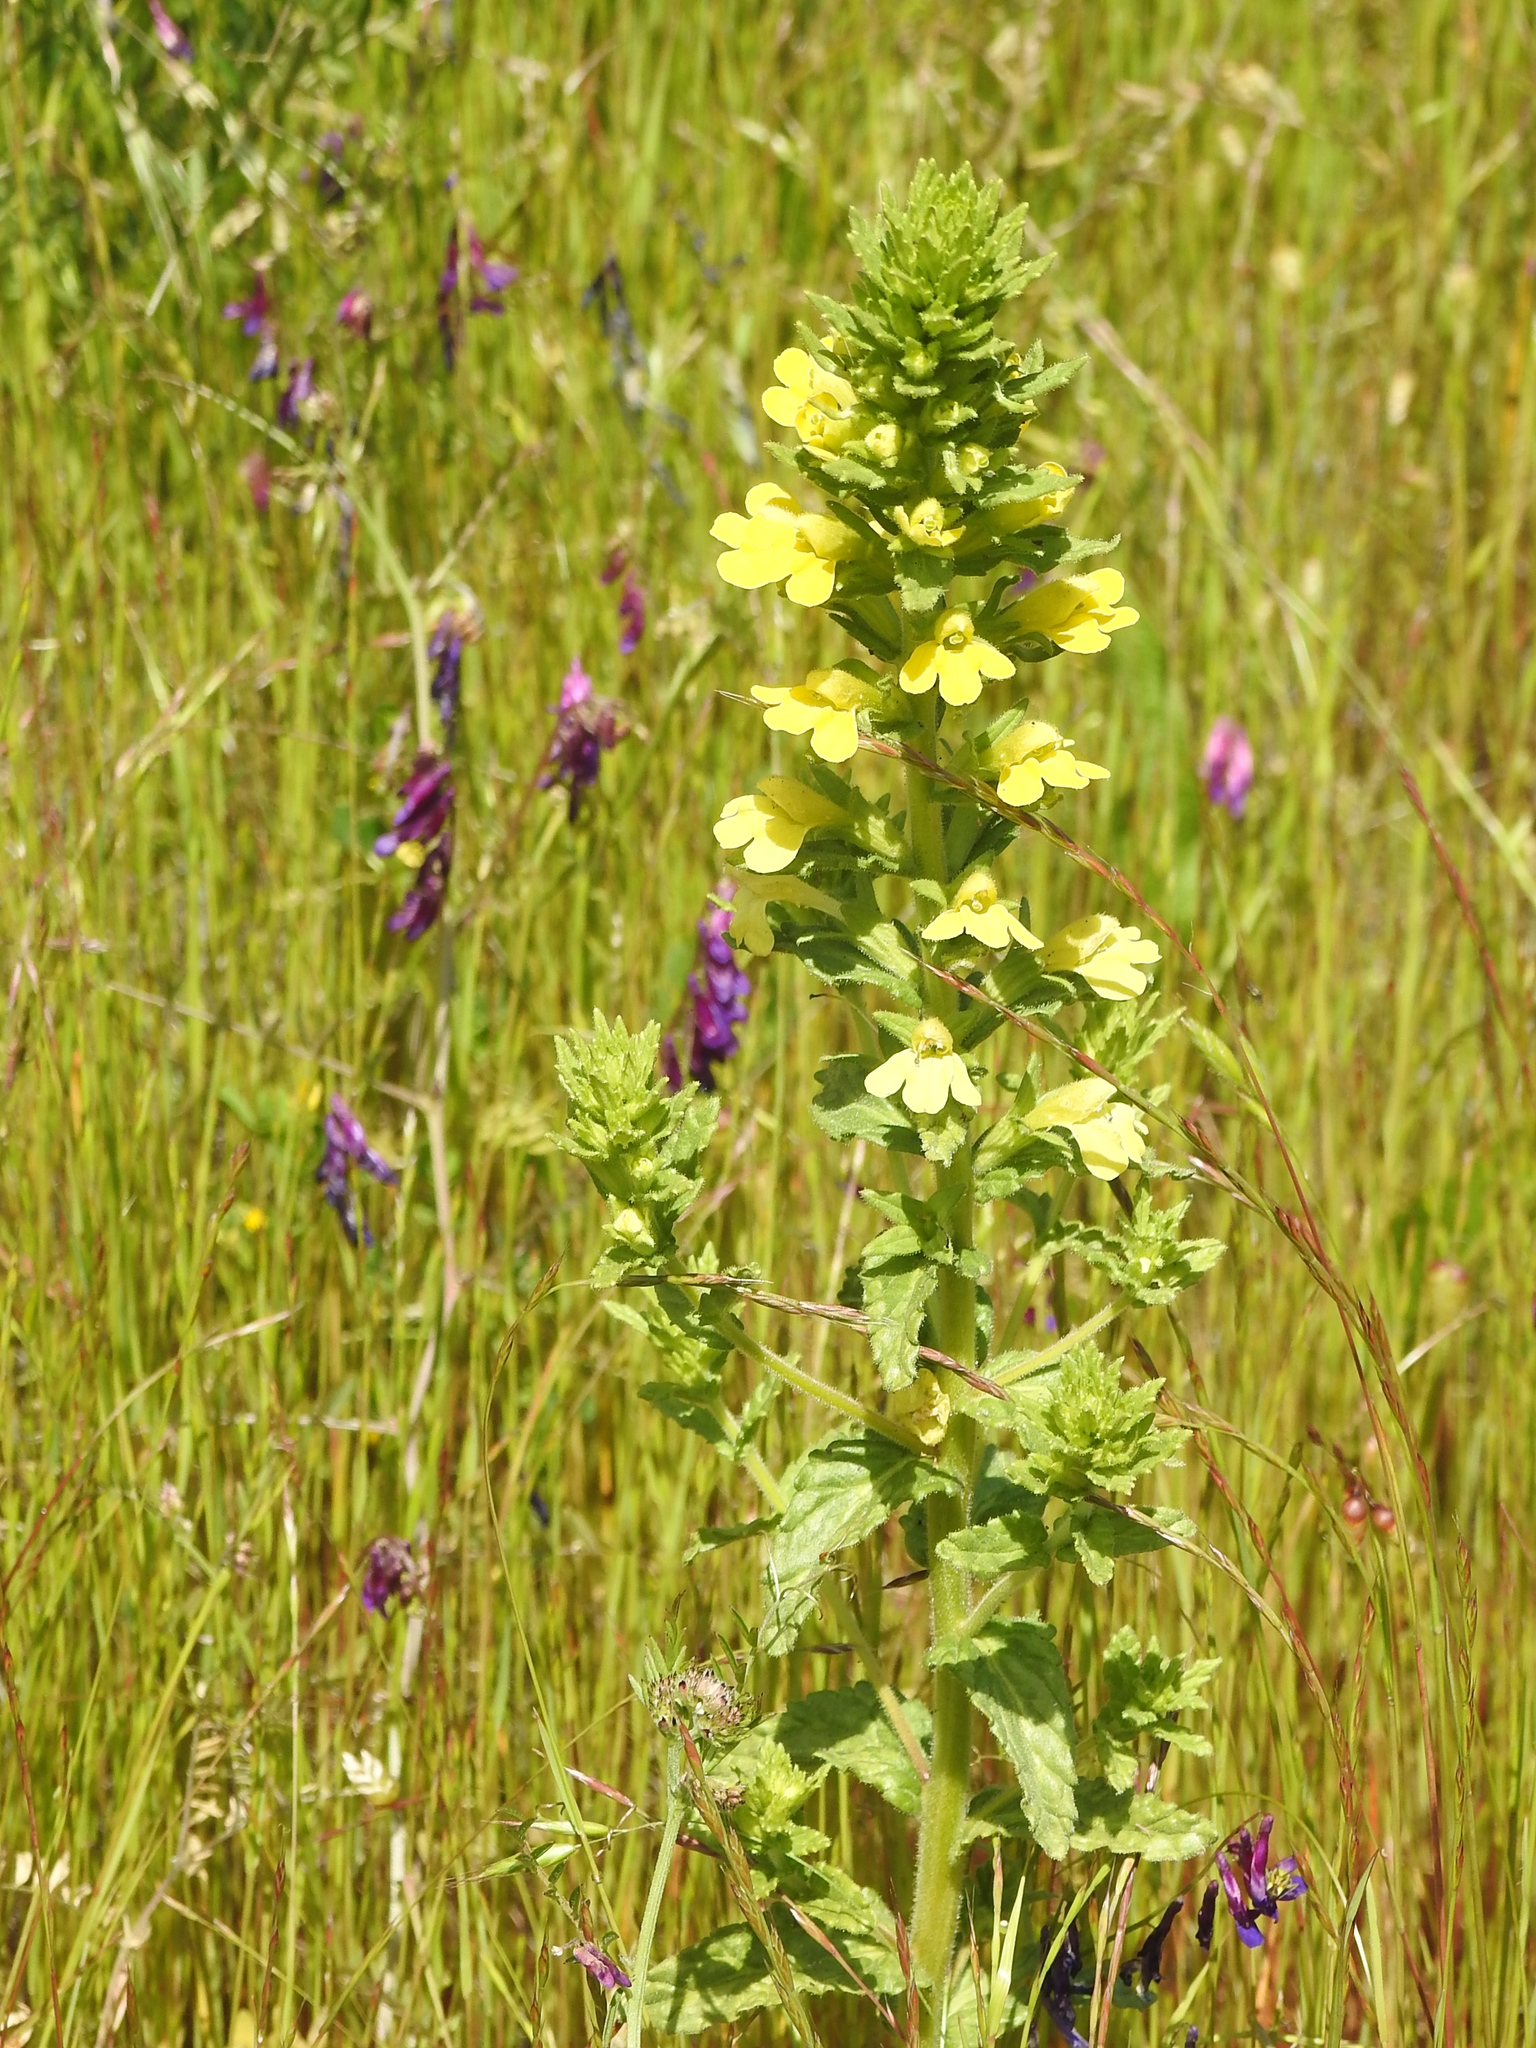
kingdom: Plantae
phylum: Tracheophyta
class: Magnoliopsida
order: Lamiales
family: Orobanchaceae
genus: Bellardia
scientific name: Bellardia viscosa
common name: Sticky parentucellia
